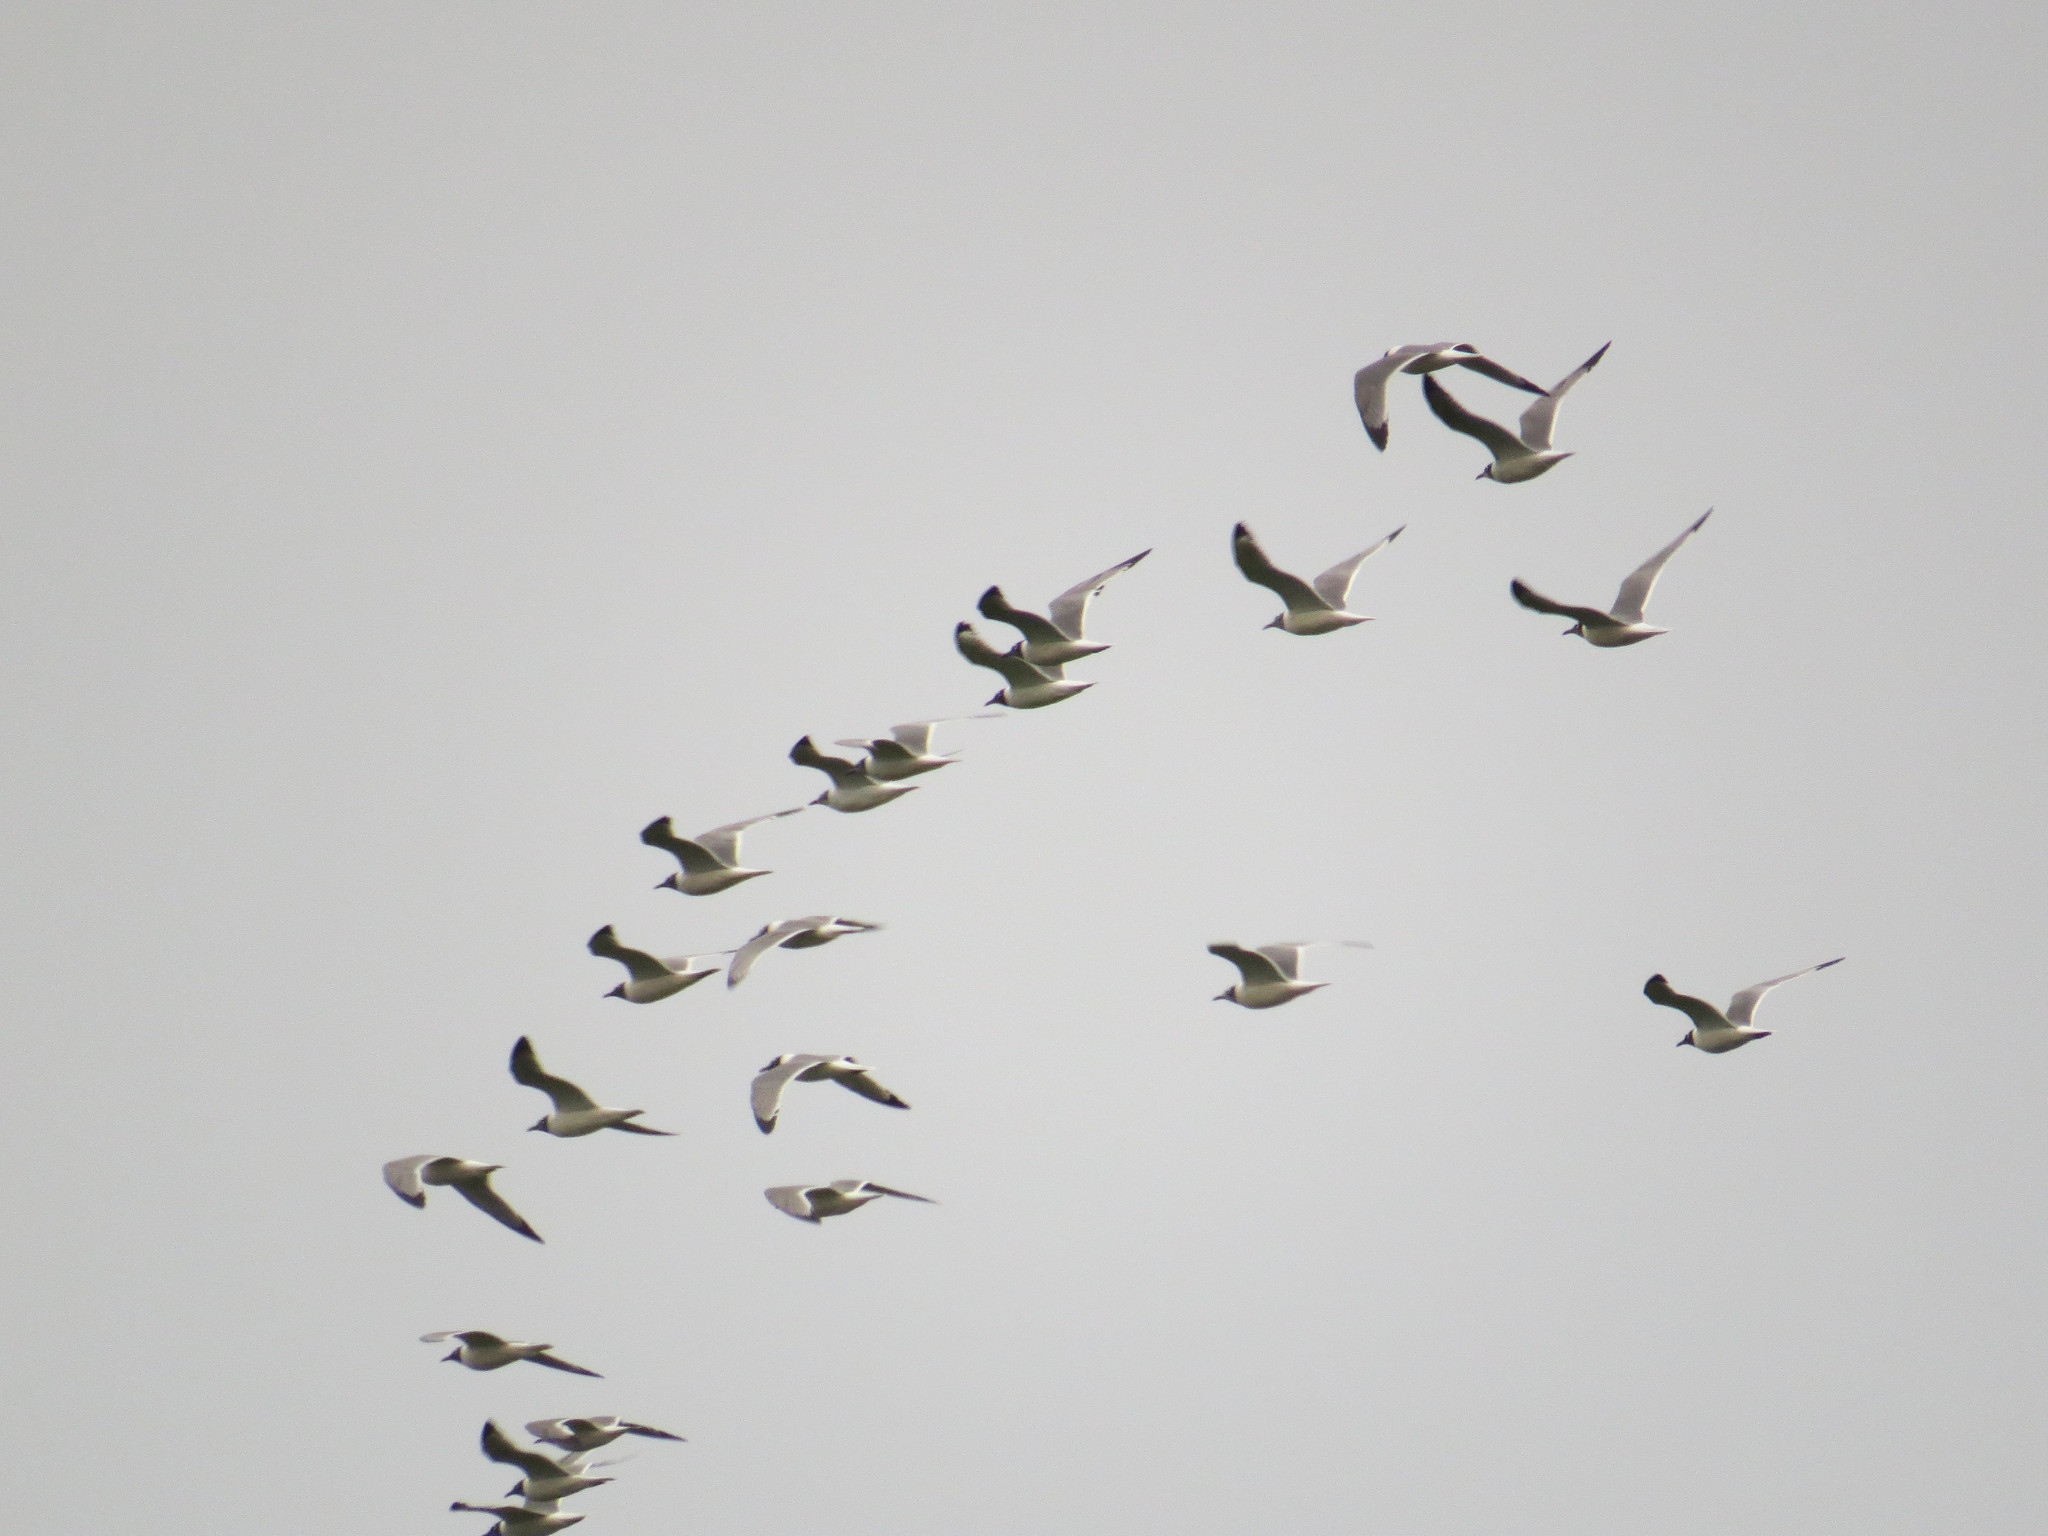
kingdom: Animalia
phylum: Chordata
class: Aves
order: Charadriiformes
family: Laridae
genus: Leucophaeus
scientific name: Leucophaeus pipixcan
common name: Franklin's gull
